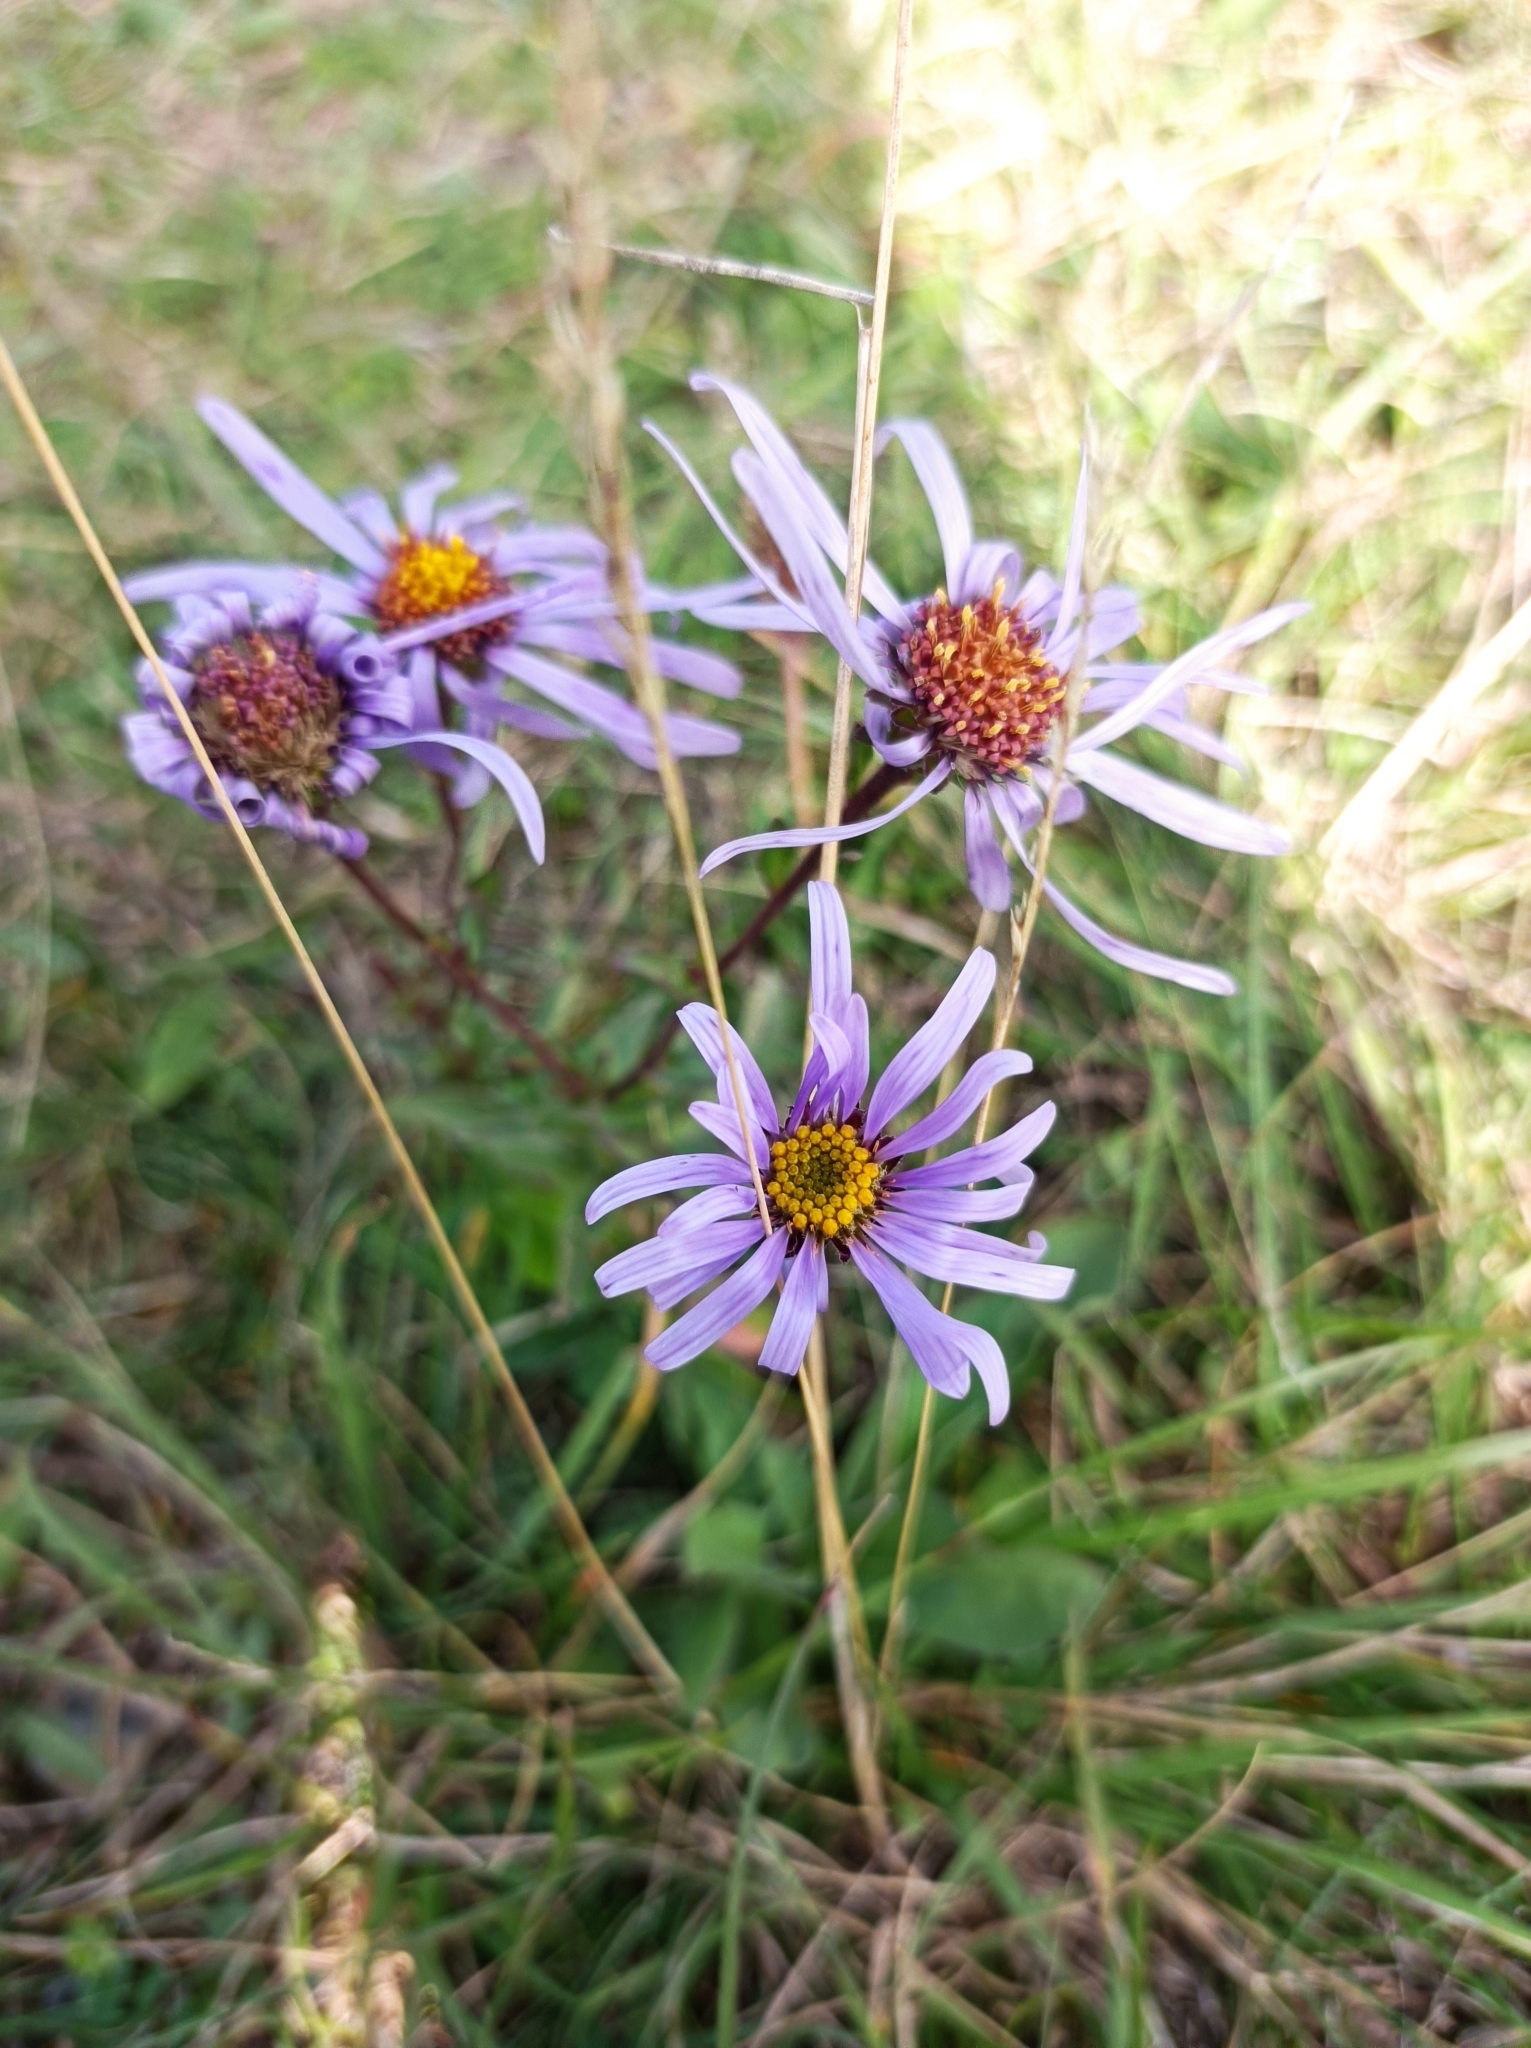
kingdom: Plantae
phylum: Tracheophyta
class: Magnoliopsida
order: Asterales
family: Asteraceae
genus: Aster
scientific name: Aster amellus
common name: European michaelmas daisy
